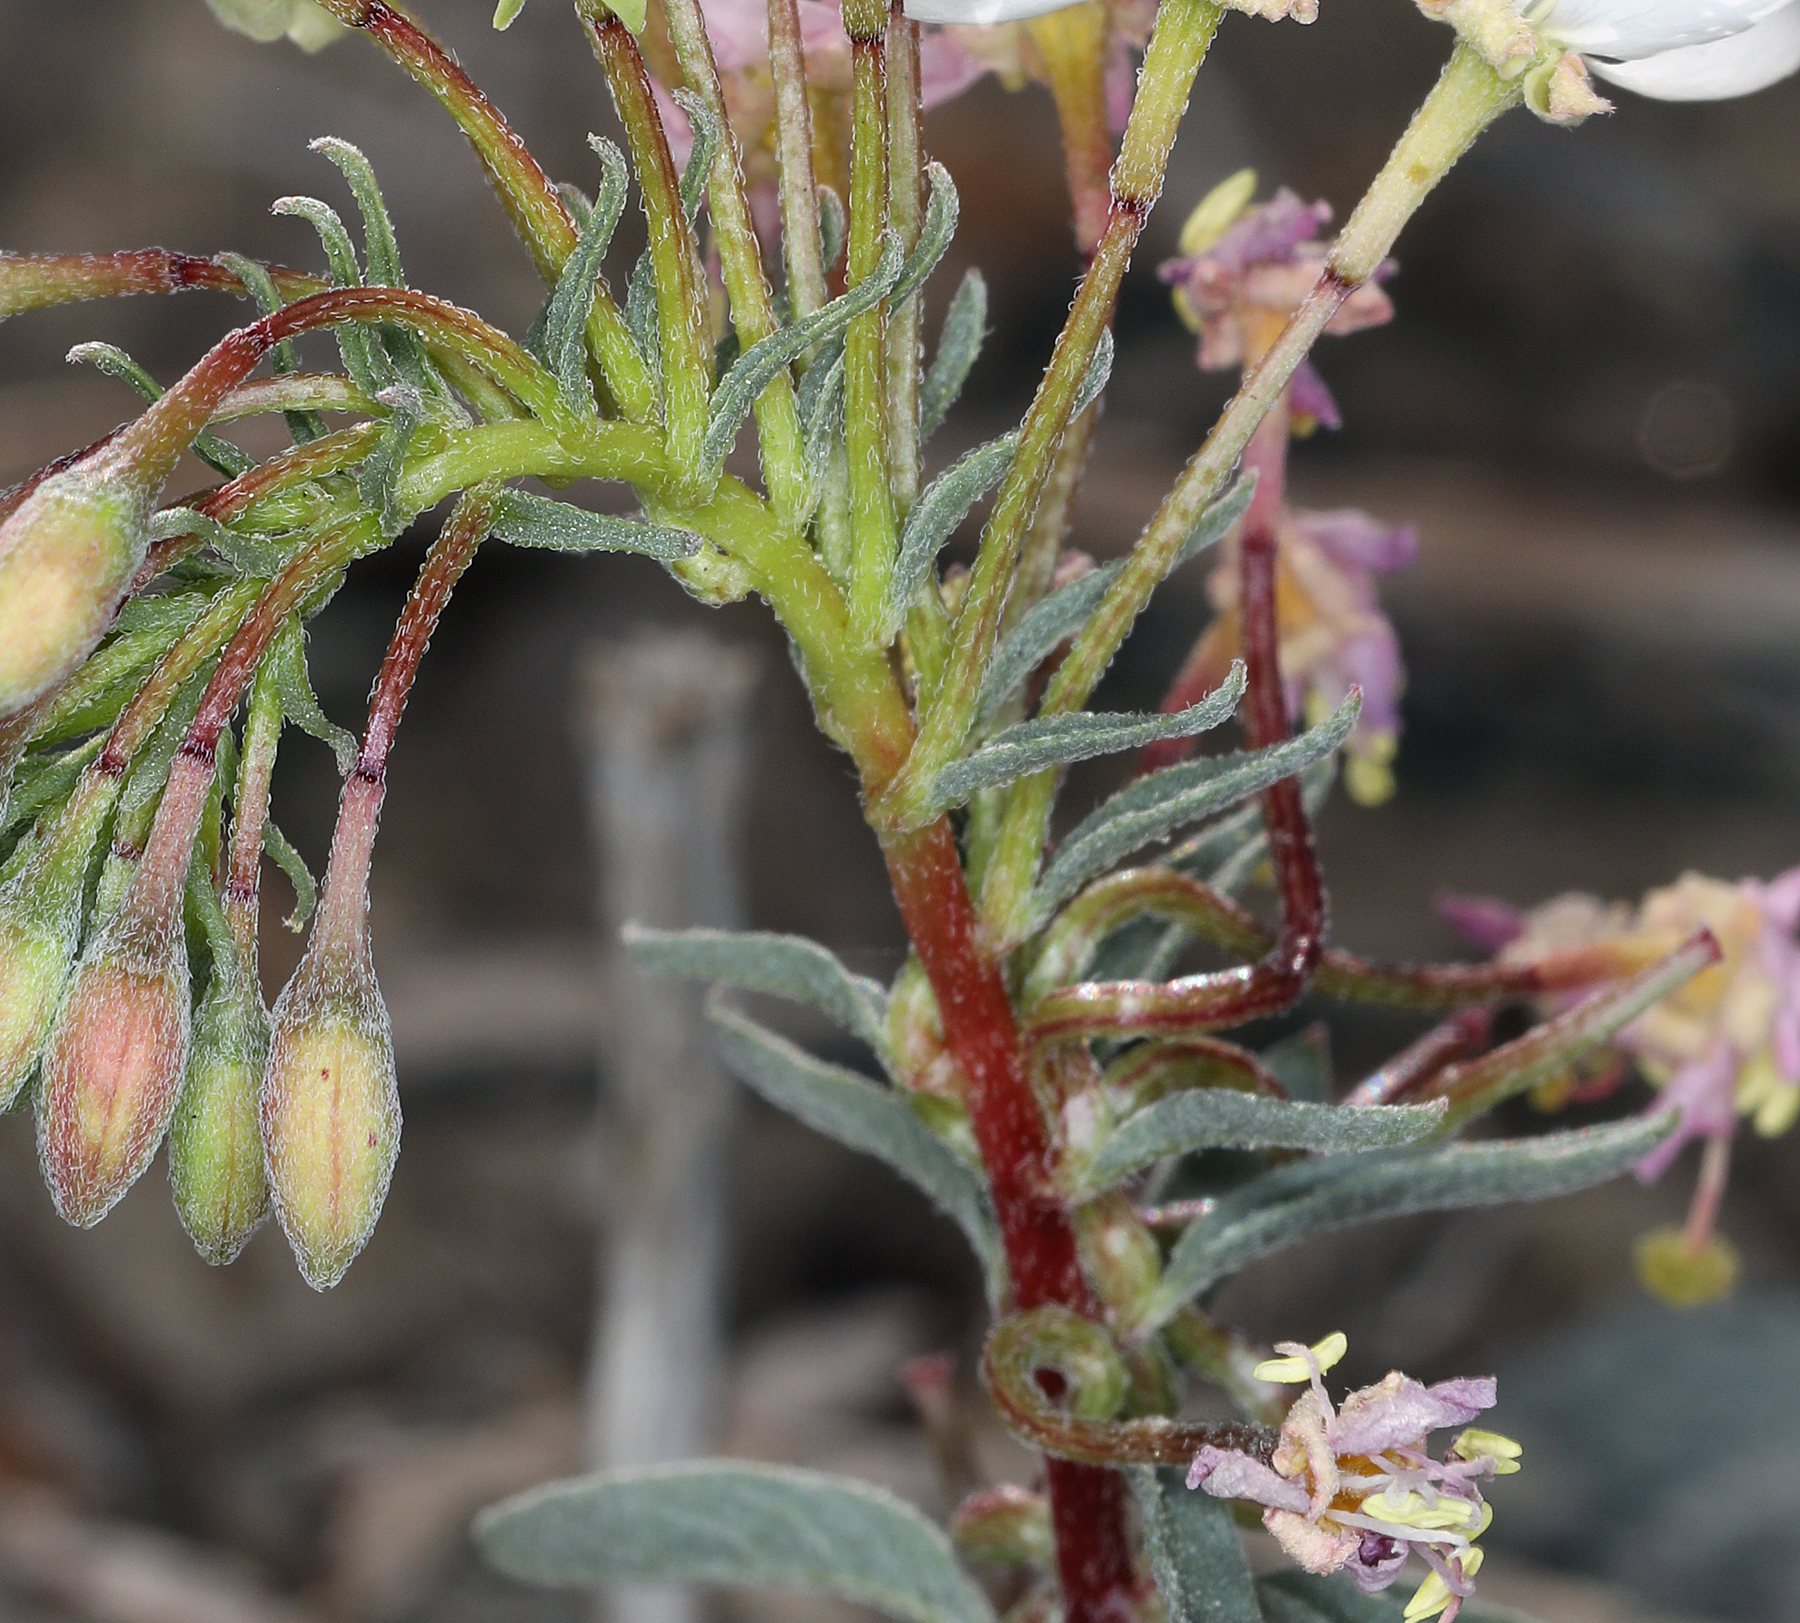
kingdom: Plantae
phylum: Tracheophyta
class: Magnoliopsida
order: Myrtales
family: Onagraceae
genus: Eremothera
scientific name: Eremothera boothii
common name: Booth's evening primrose
